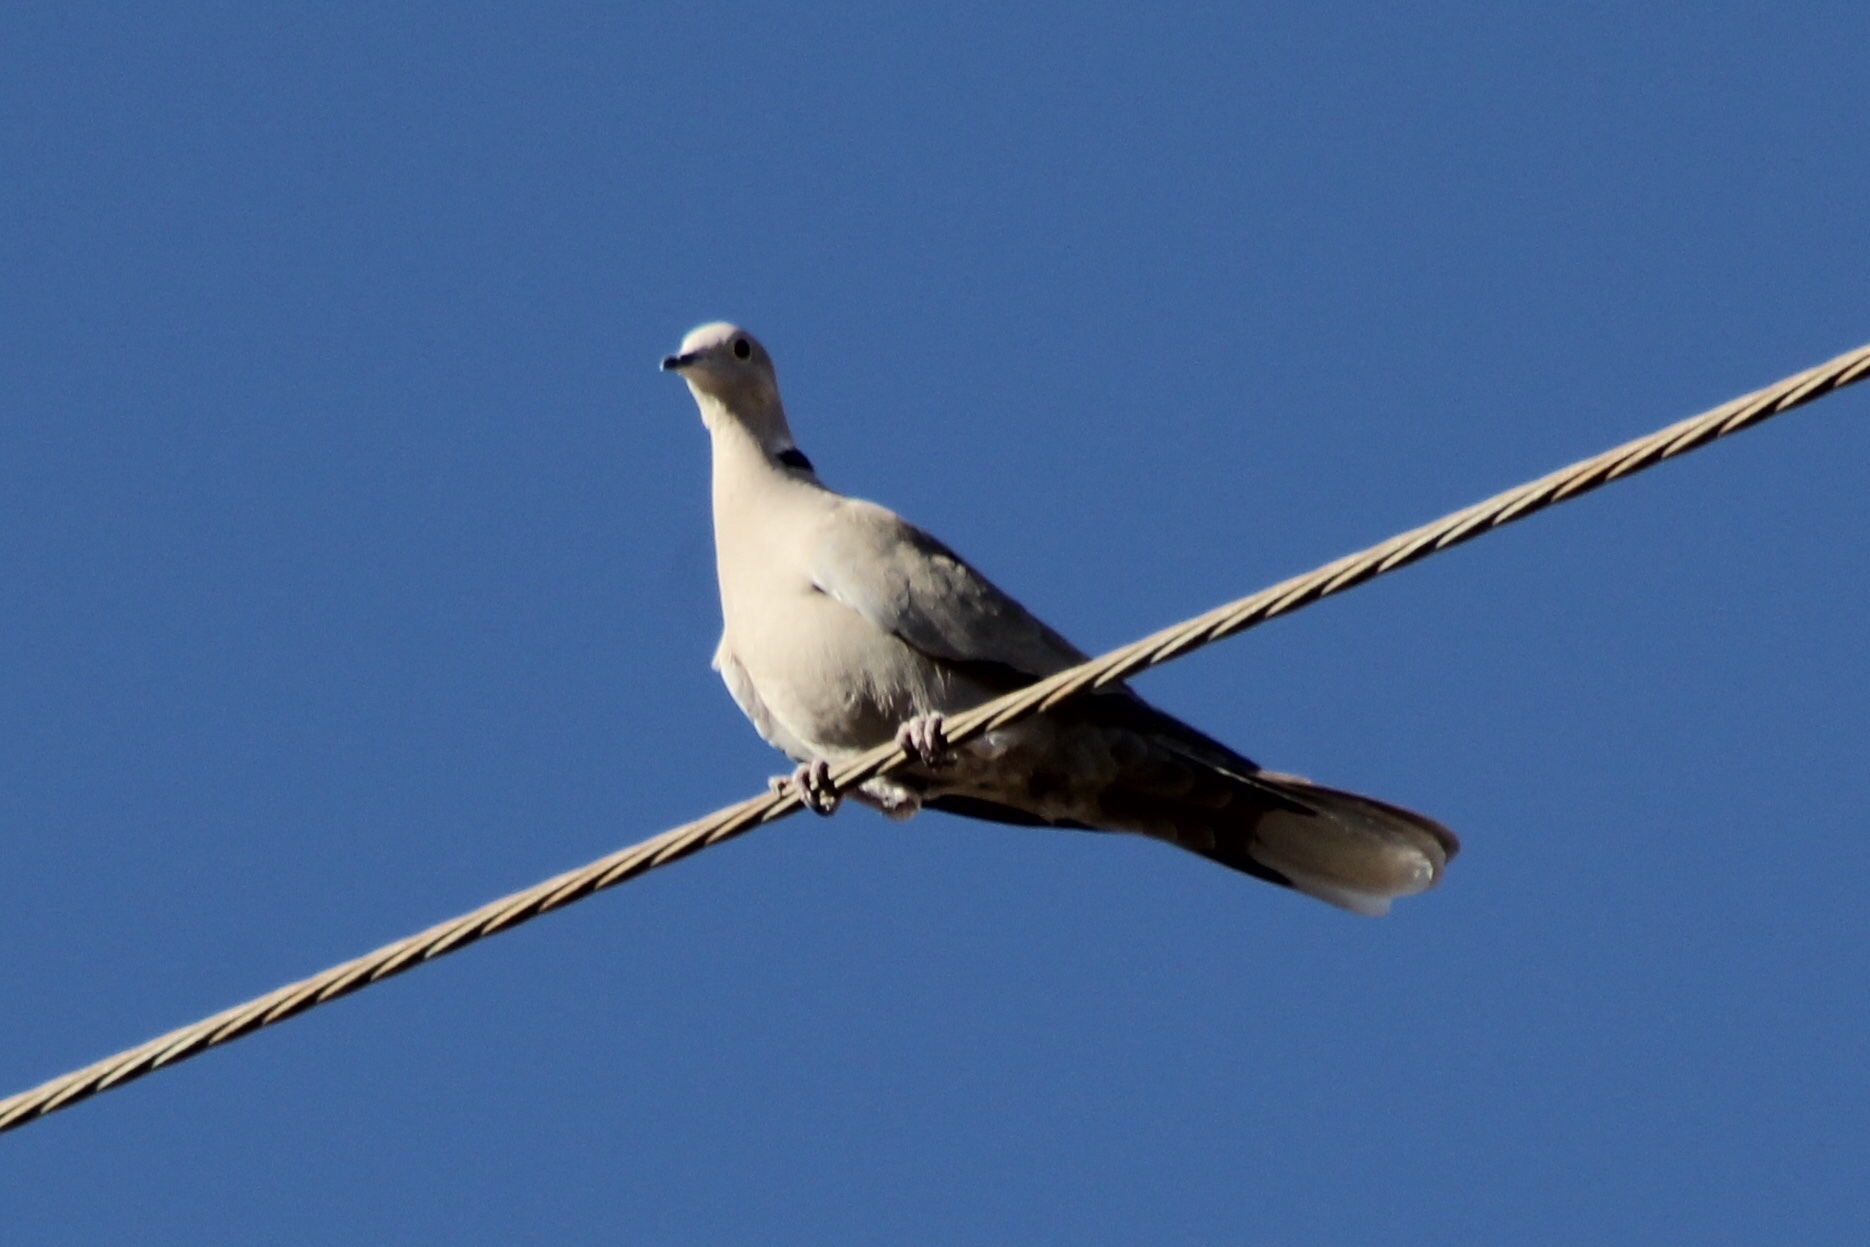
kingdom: Animalia
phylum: Chordata
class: Aves
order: Columbiformes
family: Columbidae
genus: Streptopelia
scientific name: Streptopelia decaocto
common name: Eurasian collared dove
